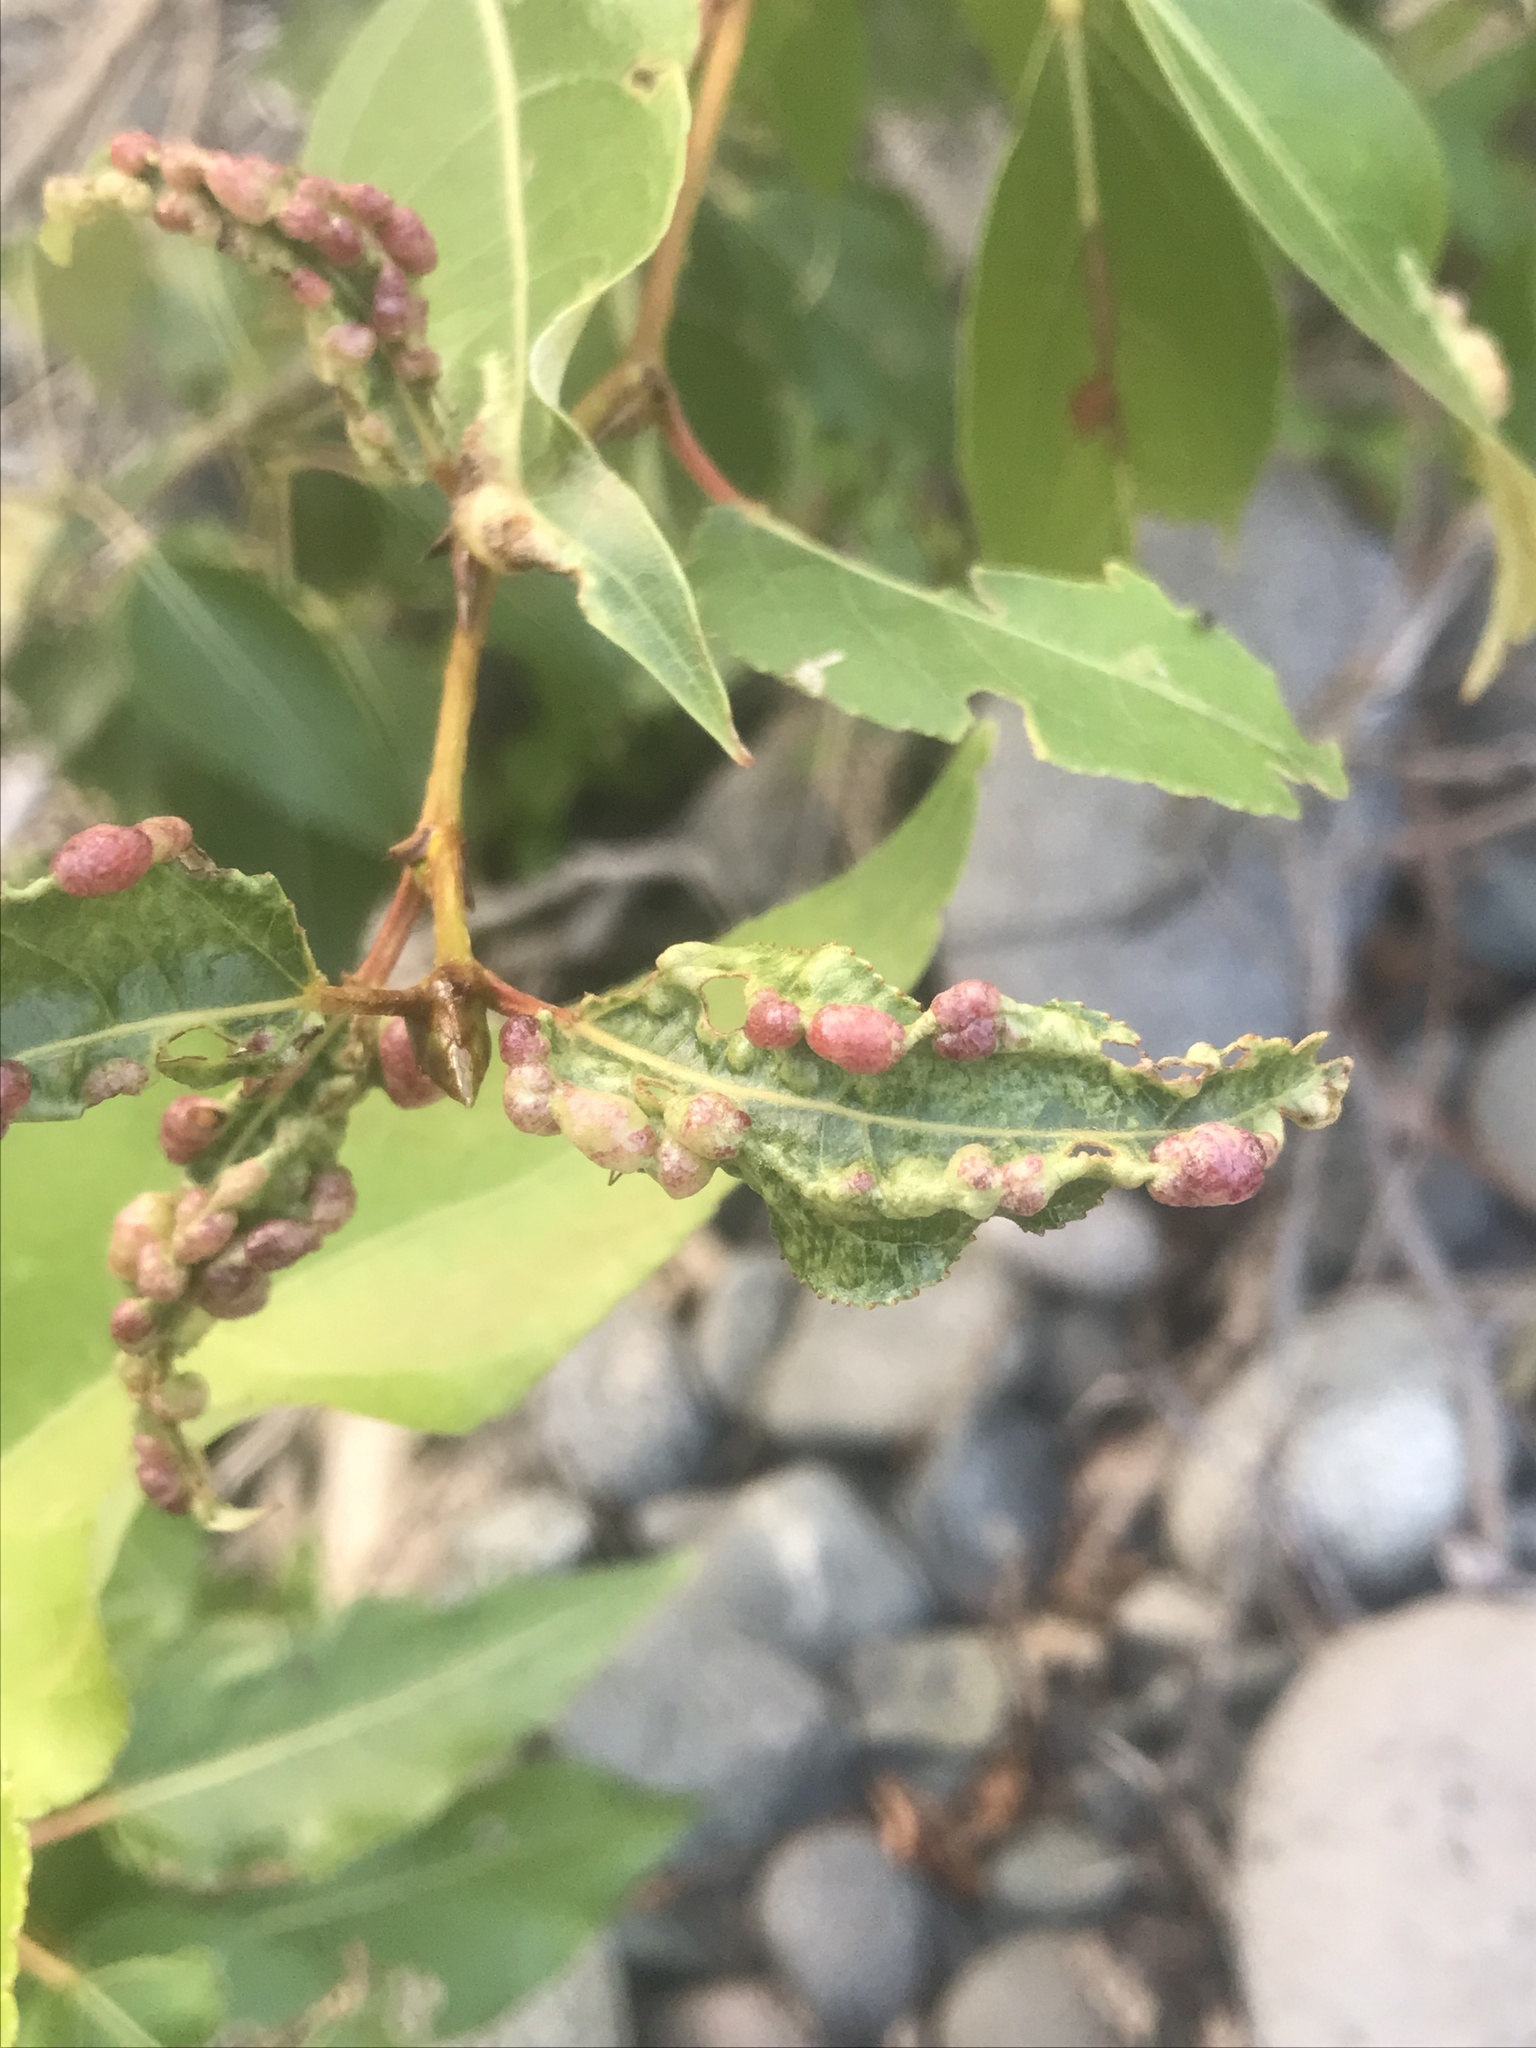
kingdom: Animalia
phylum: Arthropoda
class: Insecta
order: Hemiptera
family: Aphididae
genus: Thecabius
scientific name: Thecabius populimonilis
